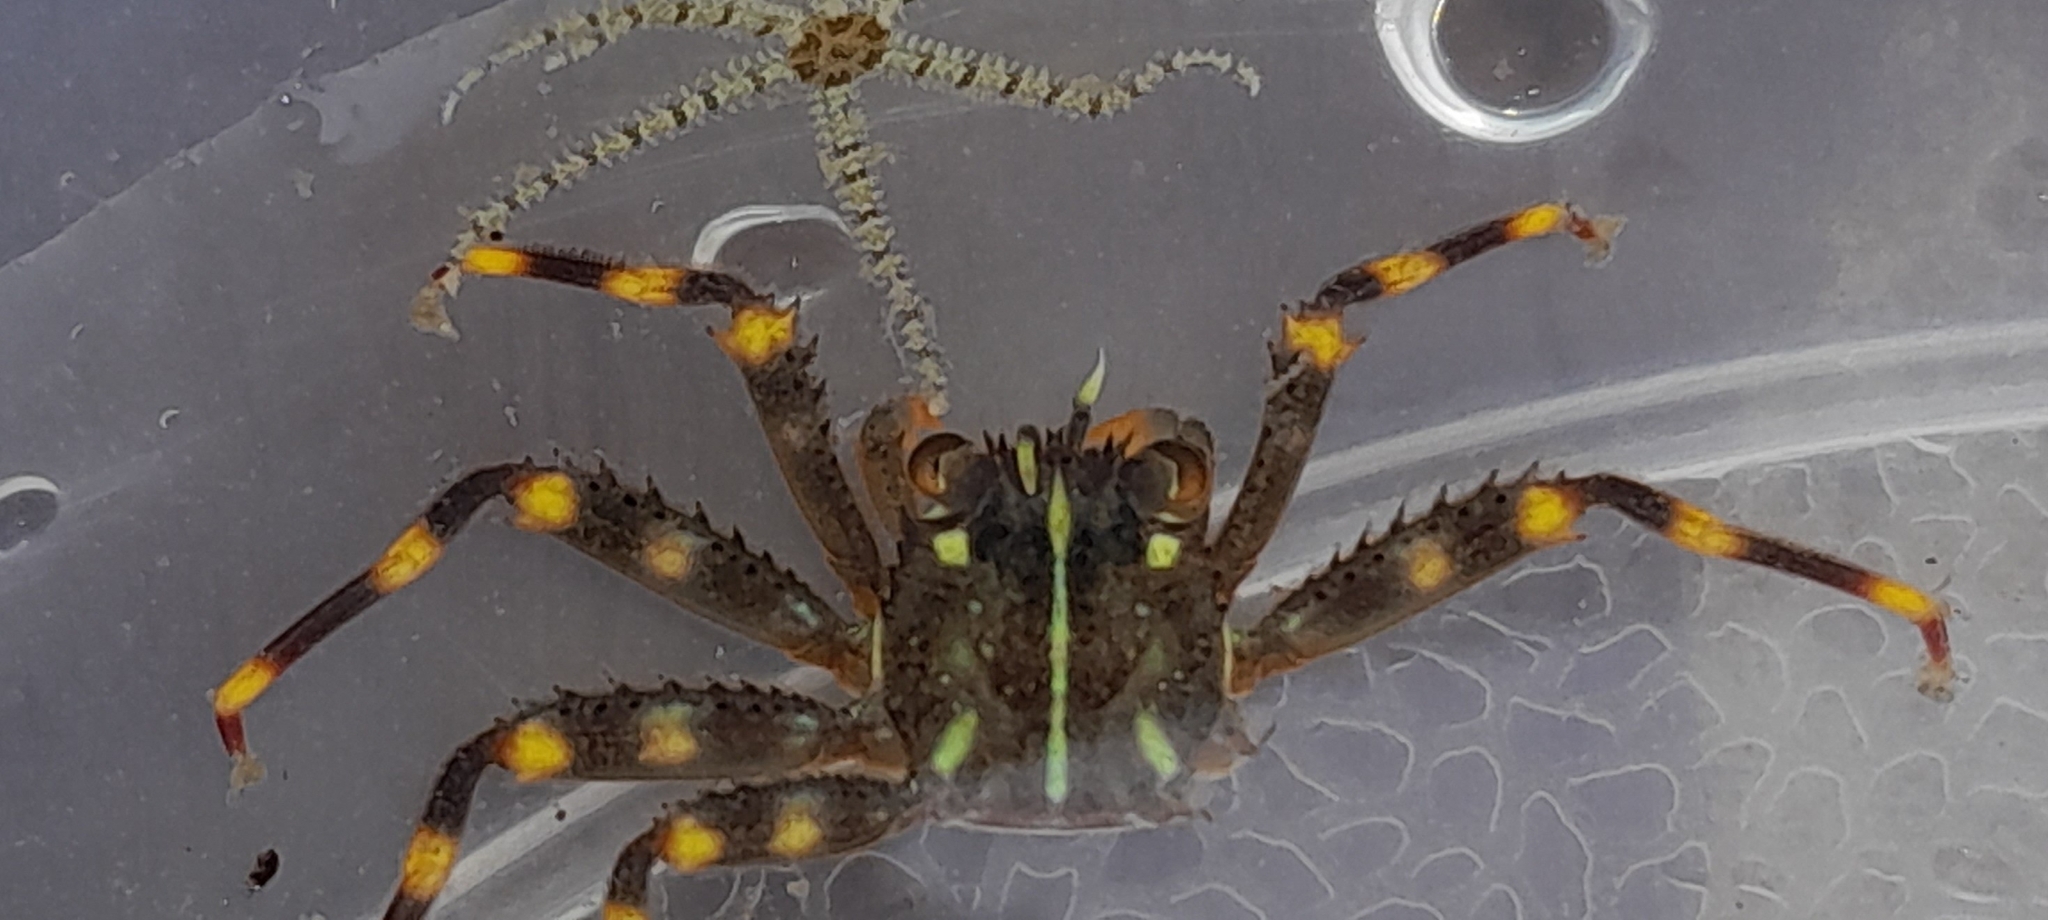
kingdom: Animalia
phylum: Arthropoda
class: Malacostraca
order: Decapoda
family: Percnidae
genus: Percnon
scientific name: Percnon gibbesi
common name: Nimble spray crab
